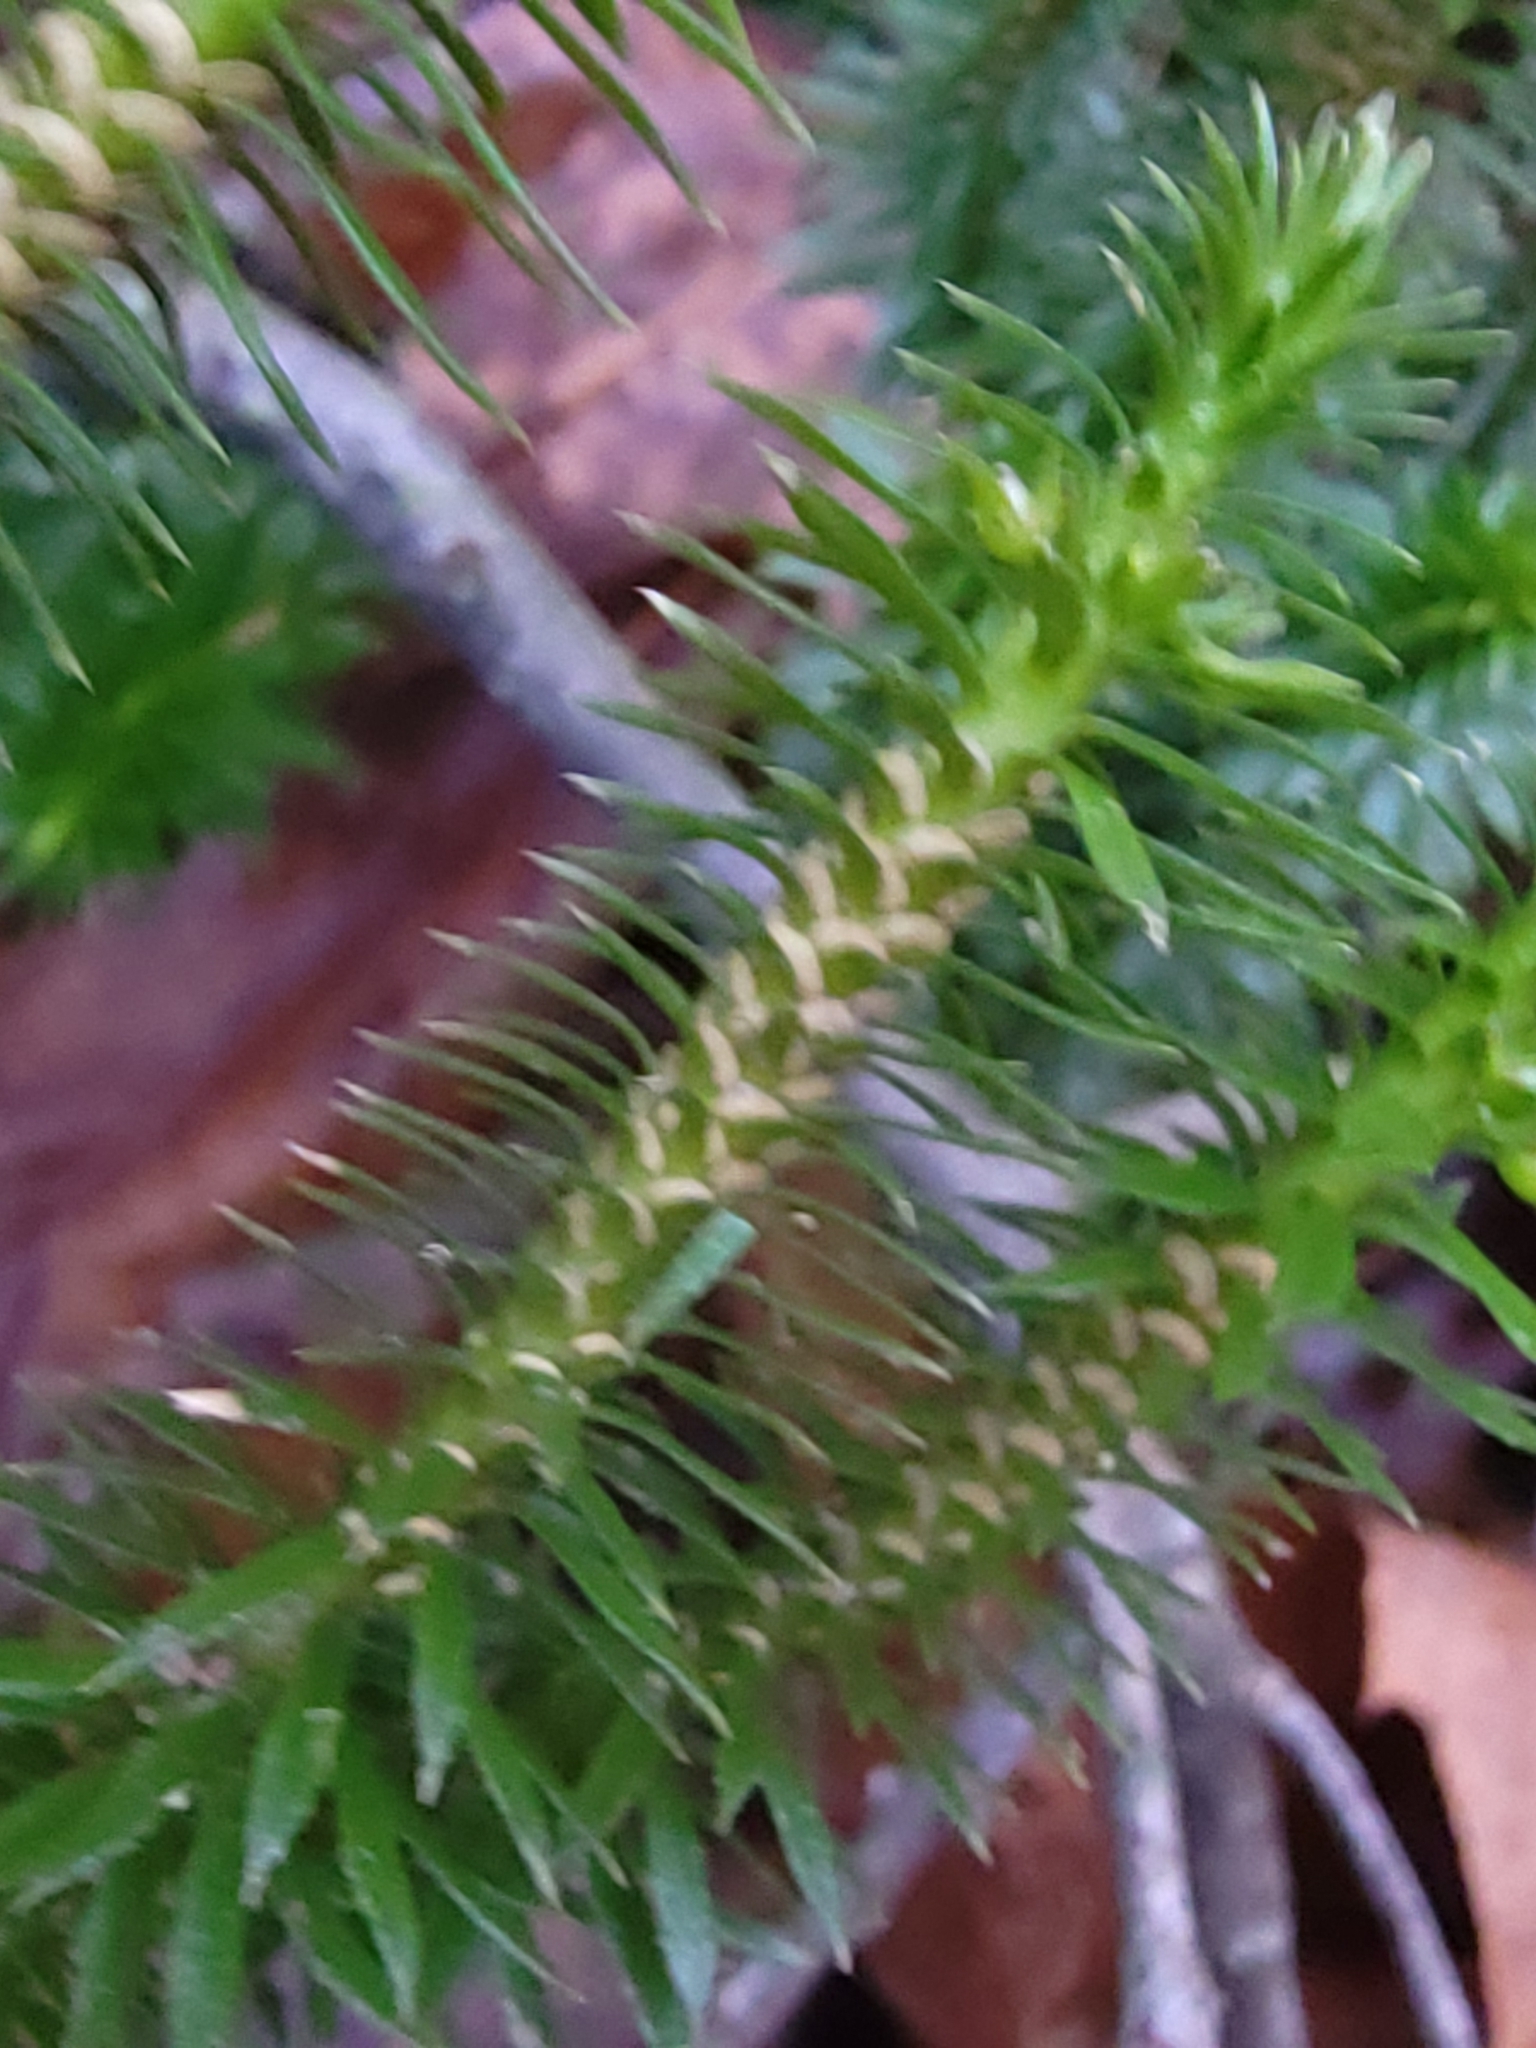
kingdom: Plantae
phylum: Tracheophyta
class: Lycopodiopsida
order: Lycopodiales
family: Lycopodiaceae
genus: Huperzia
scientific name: Huperzia lucidula
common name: Shining clubmoss
